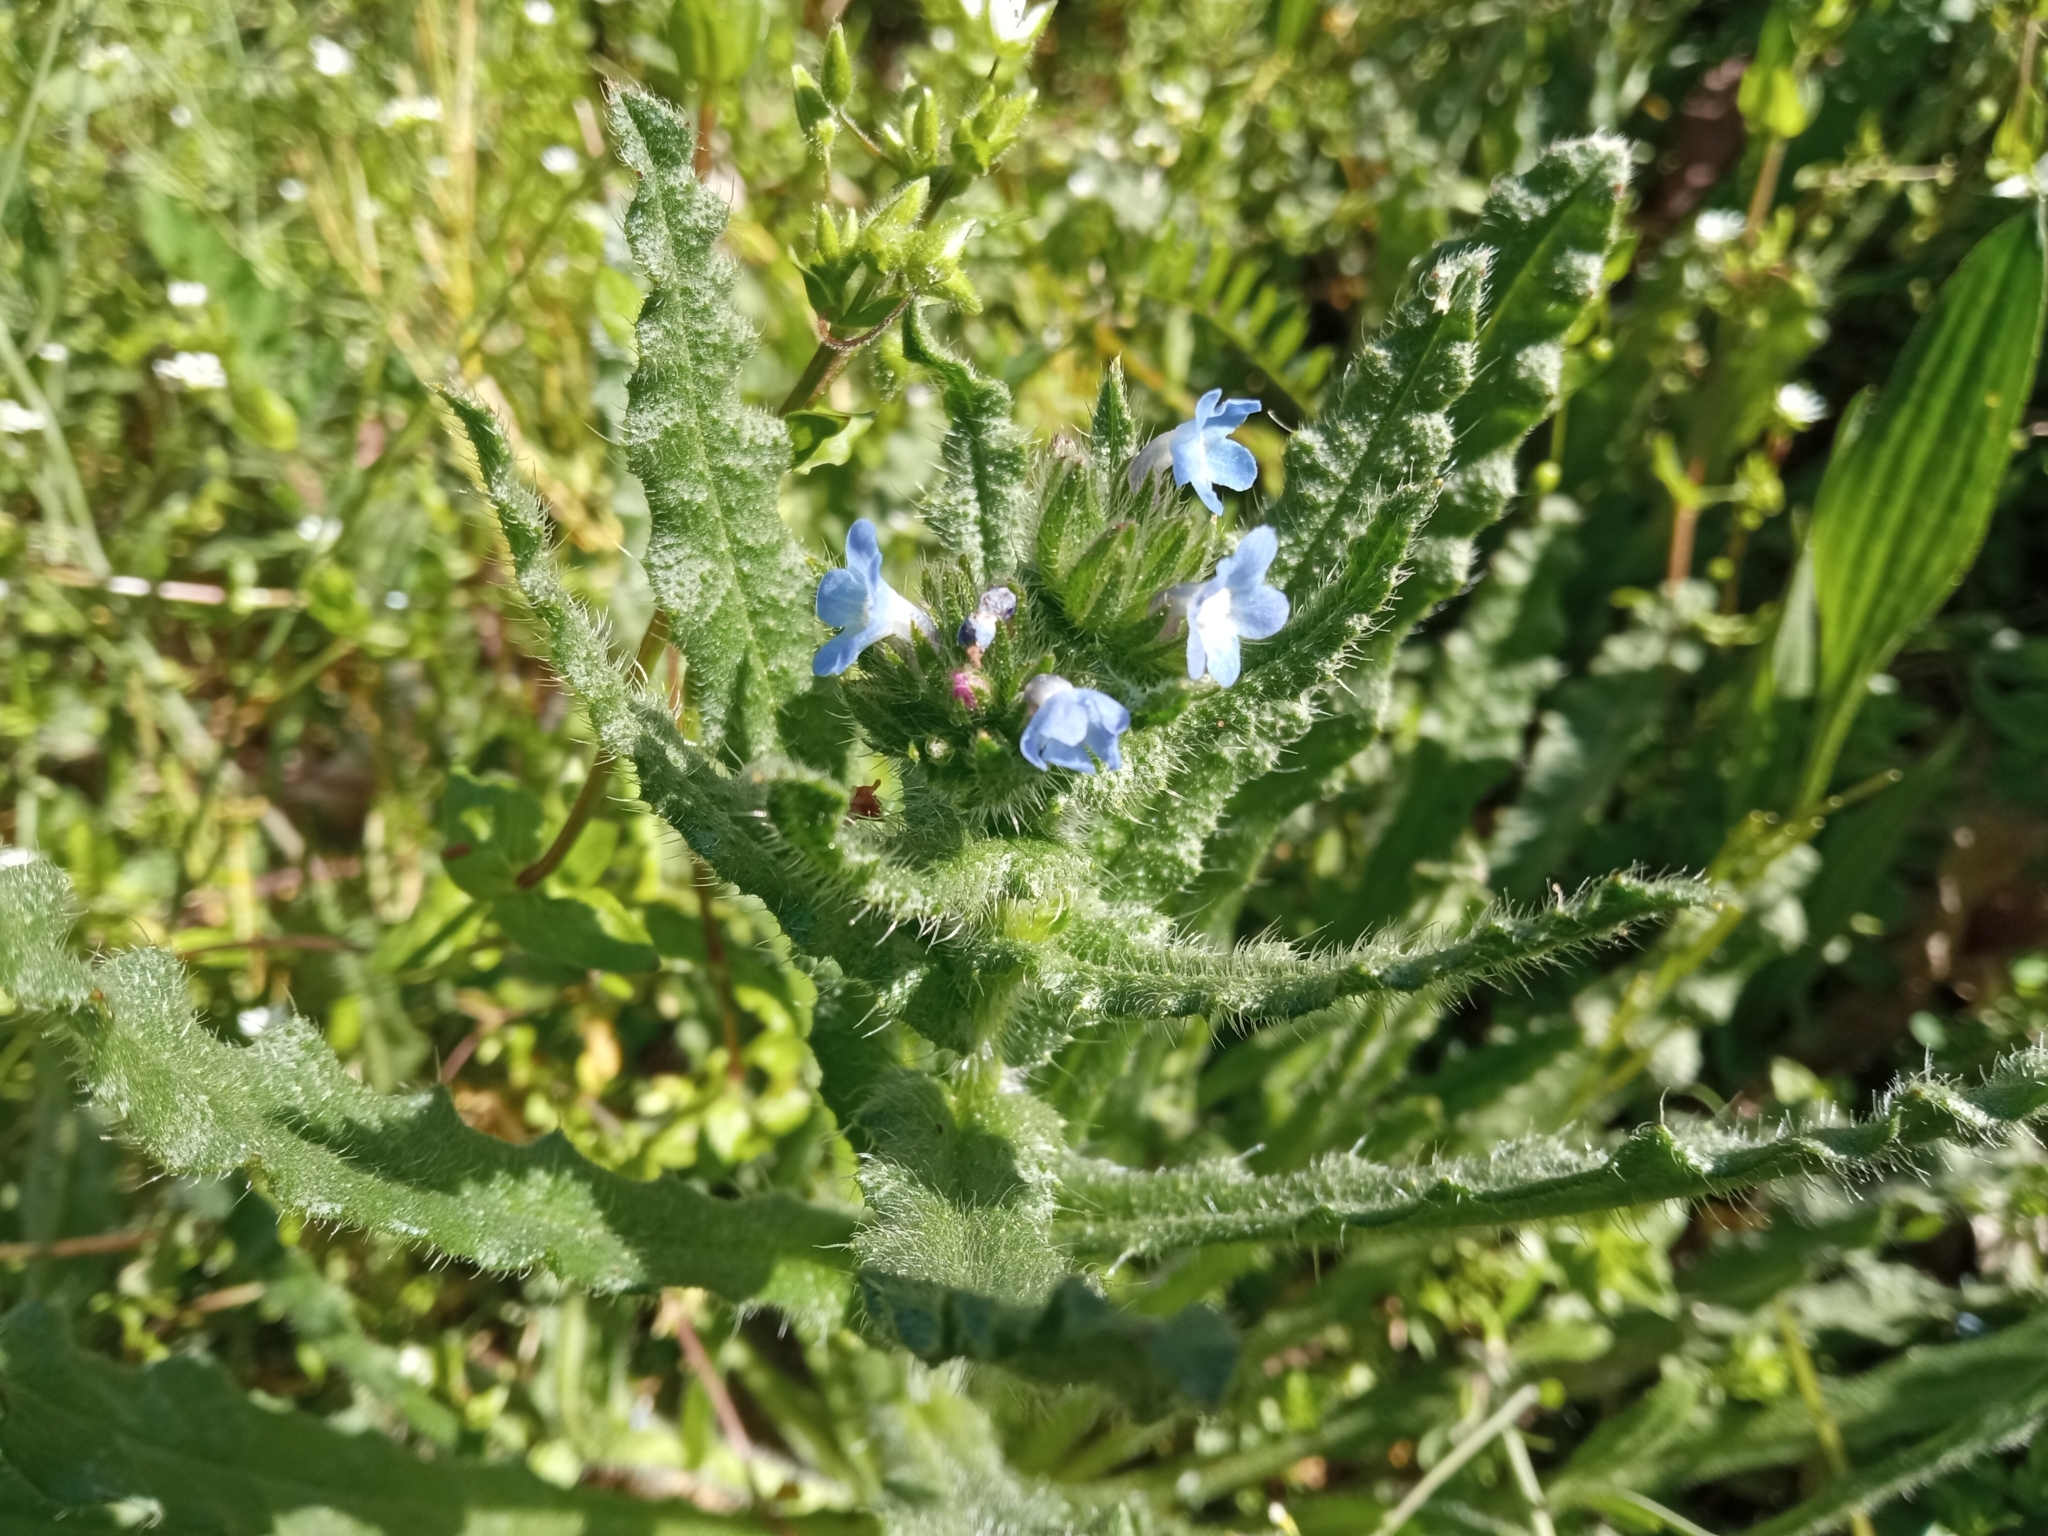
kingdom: Plantae
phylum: Tracheophyta
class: Magnoliopsida
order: Boraginales
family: Boraginaceae
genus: Lycopsis
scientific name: Lycopsis arvensis
